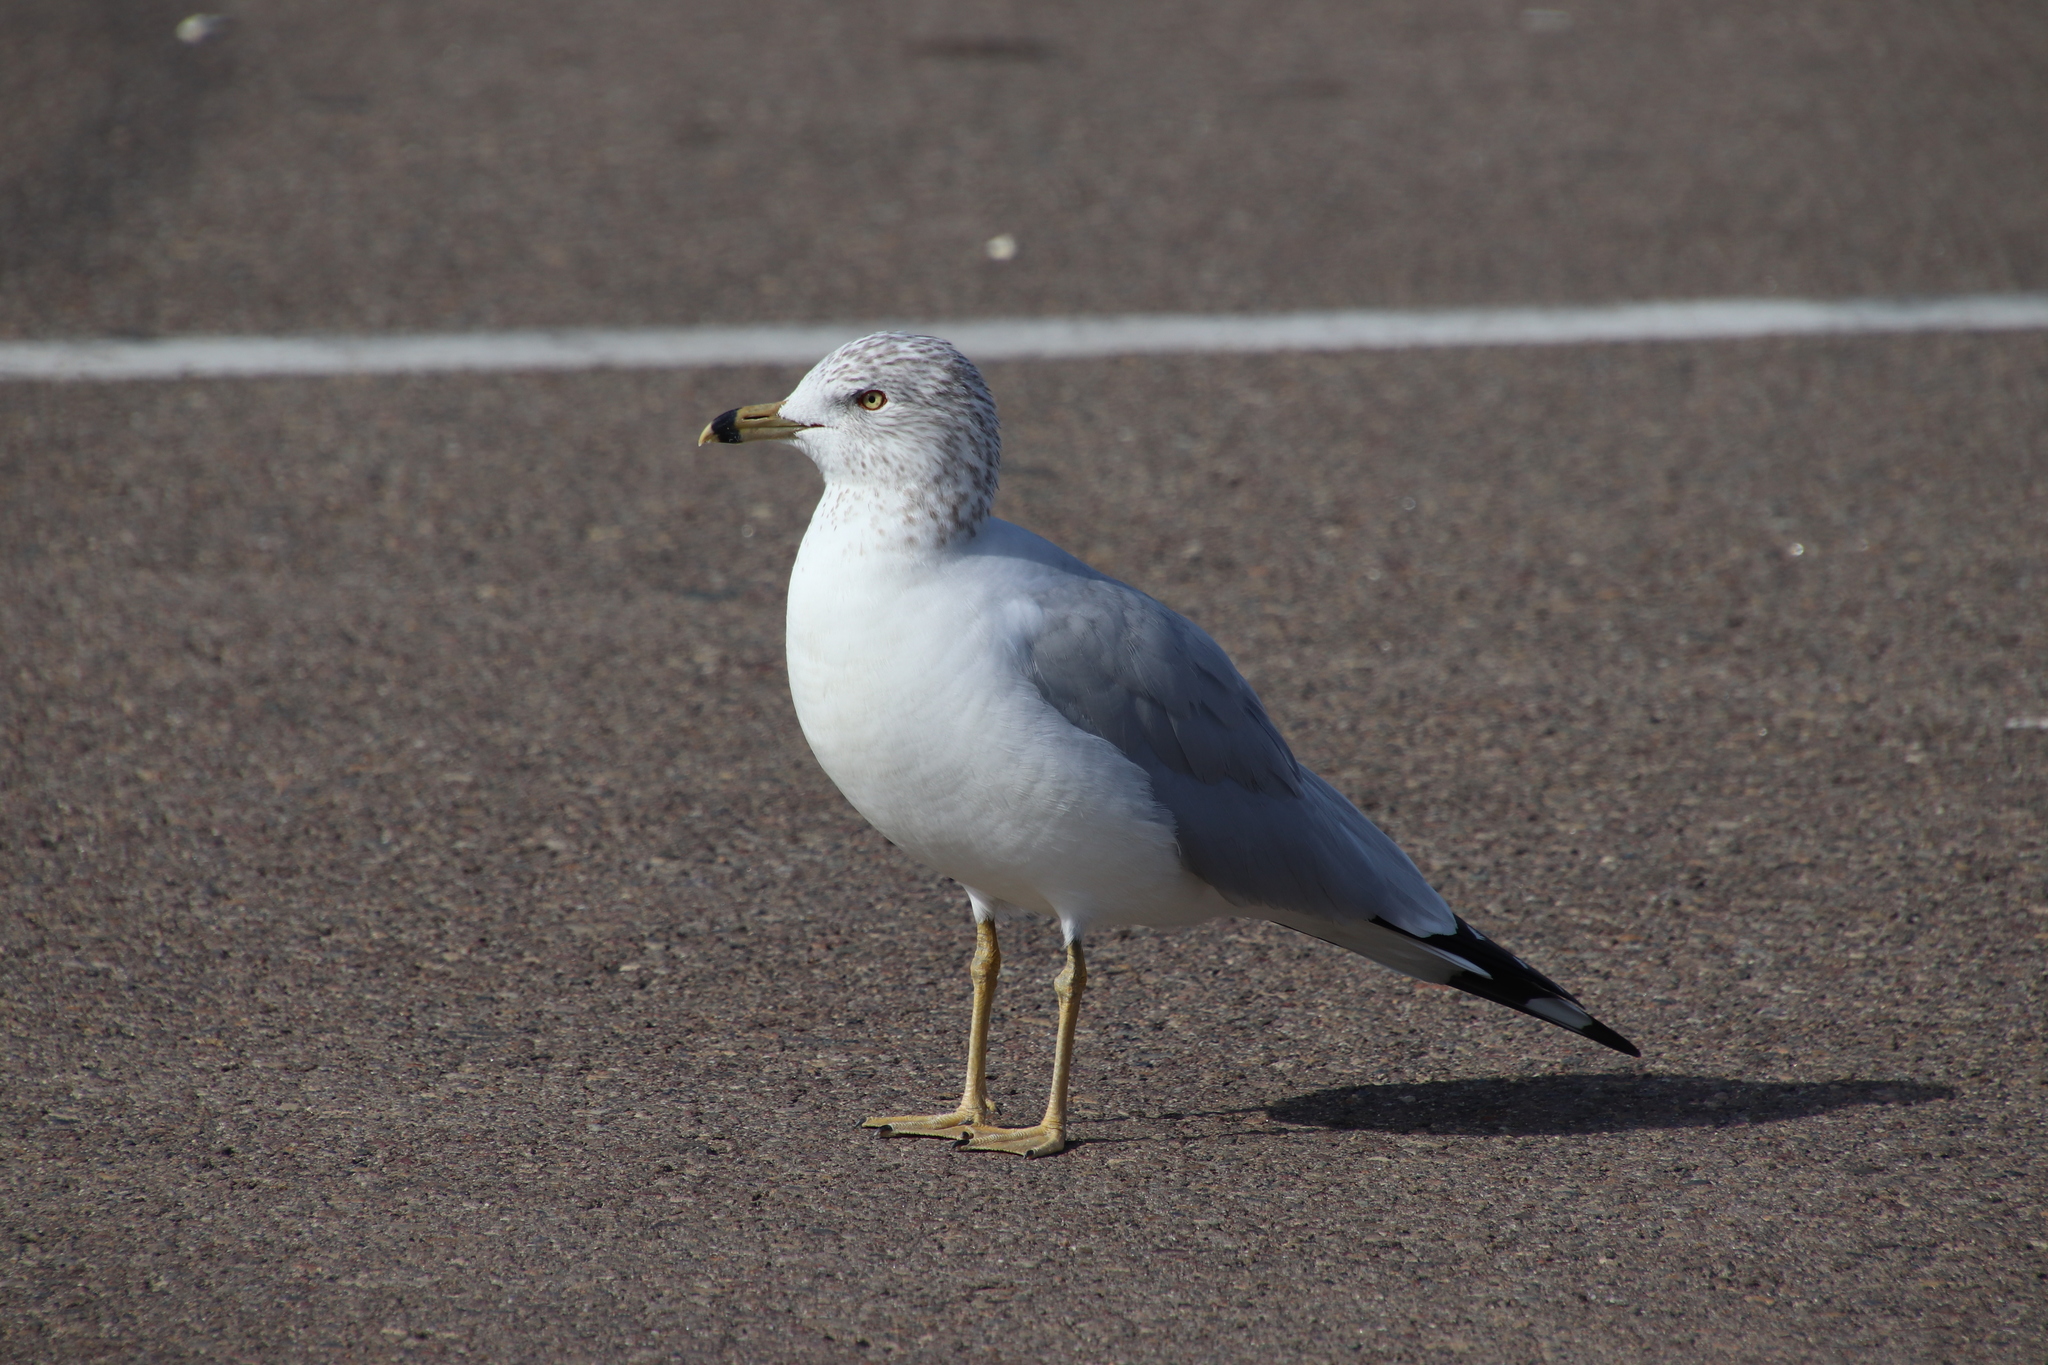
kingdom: Animalia
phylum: Chordata
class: Aves
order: Charadriiformes
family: Laridae
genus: Larus
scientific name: Larus delawarensis
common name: Ring-billed gull
